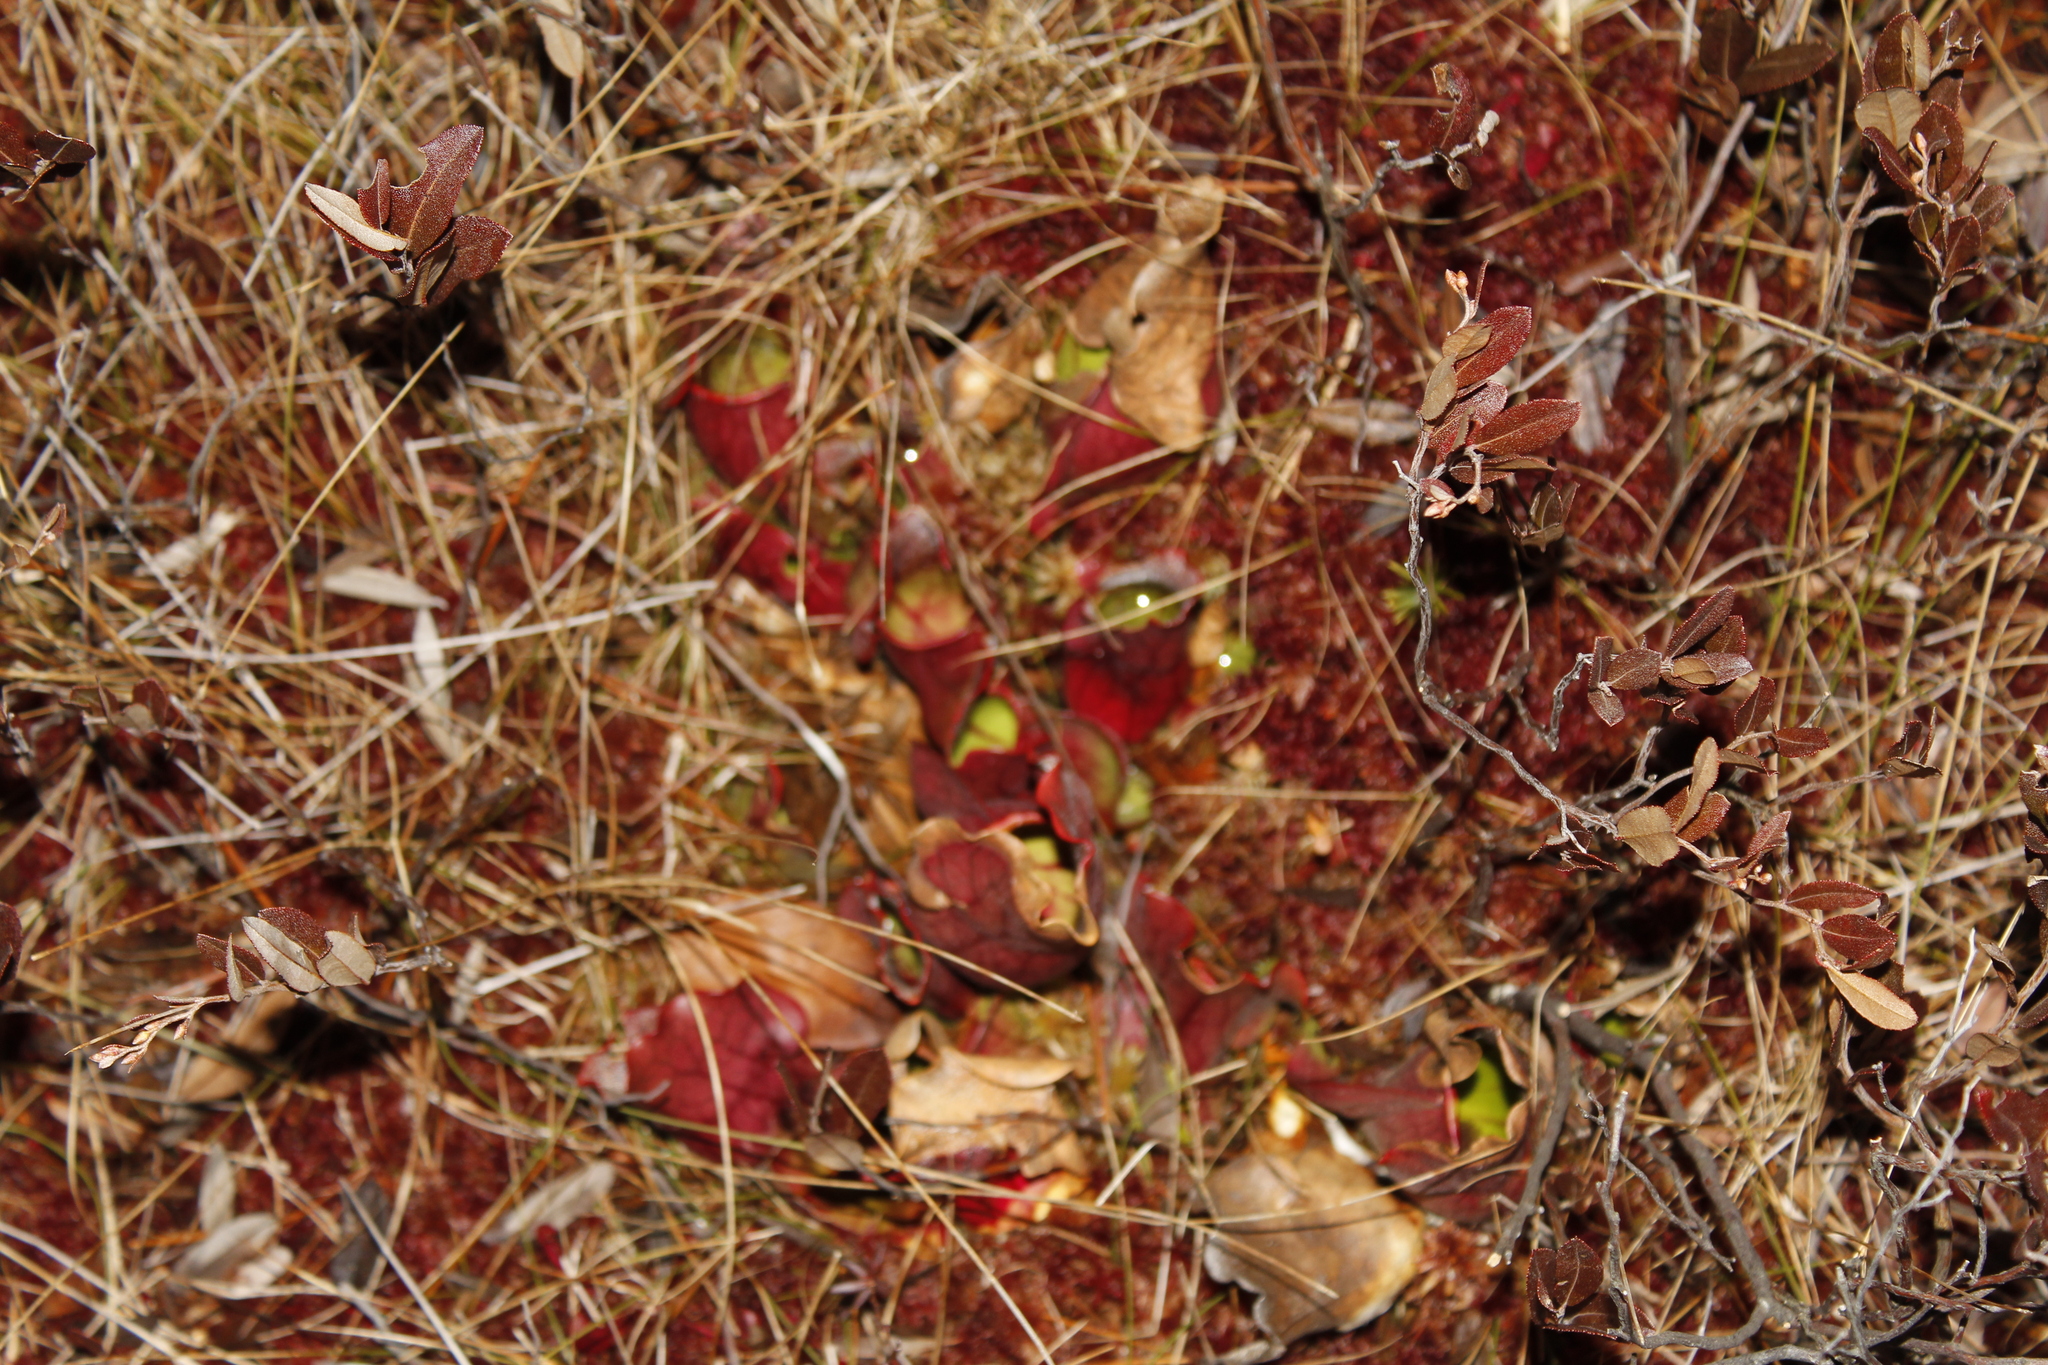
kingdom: Plantae
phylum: Tracheophyta
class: Magnoliopsida
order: Ericales
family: Sarraceniaceae
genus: Sarracenia
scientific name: Sarracenia purpurea
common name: Pitcherplant
